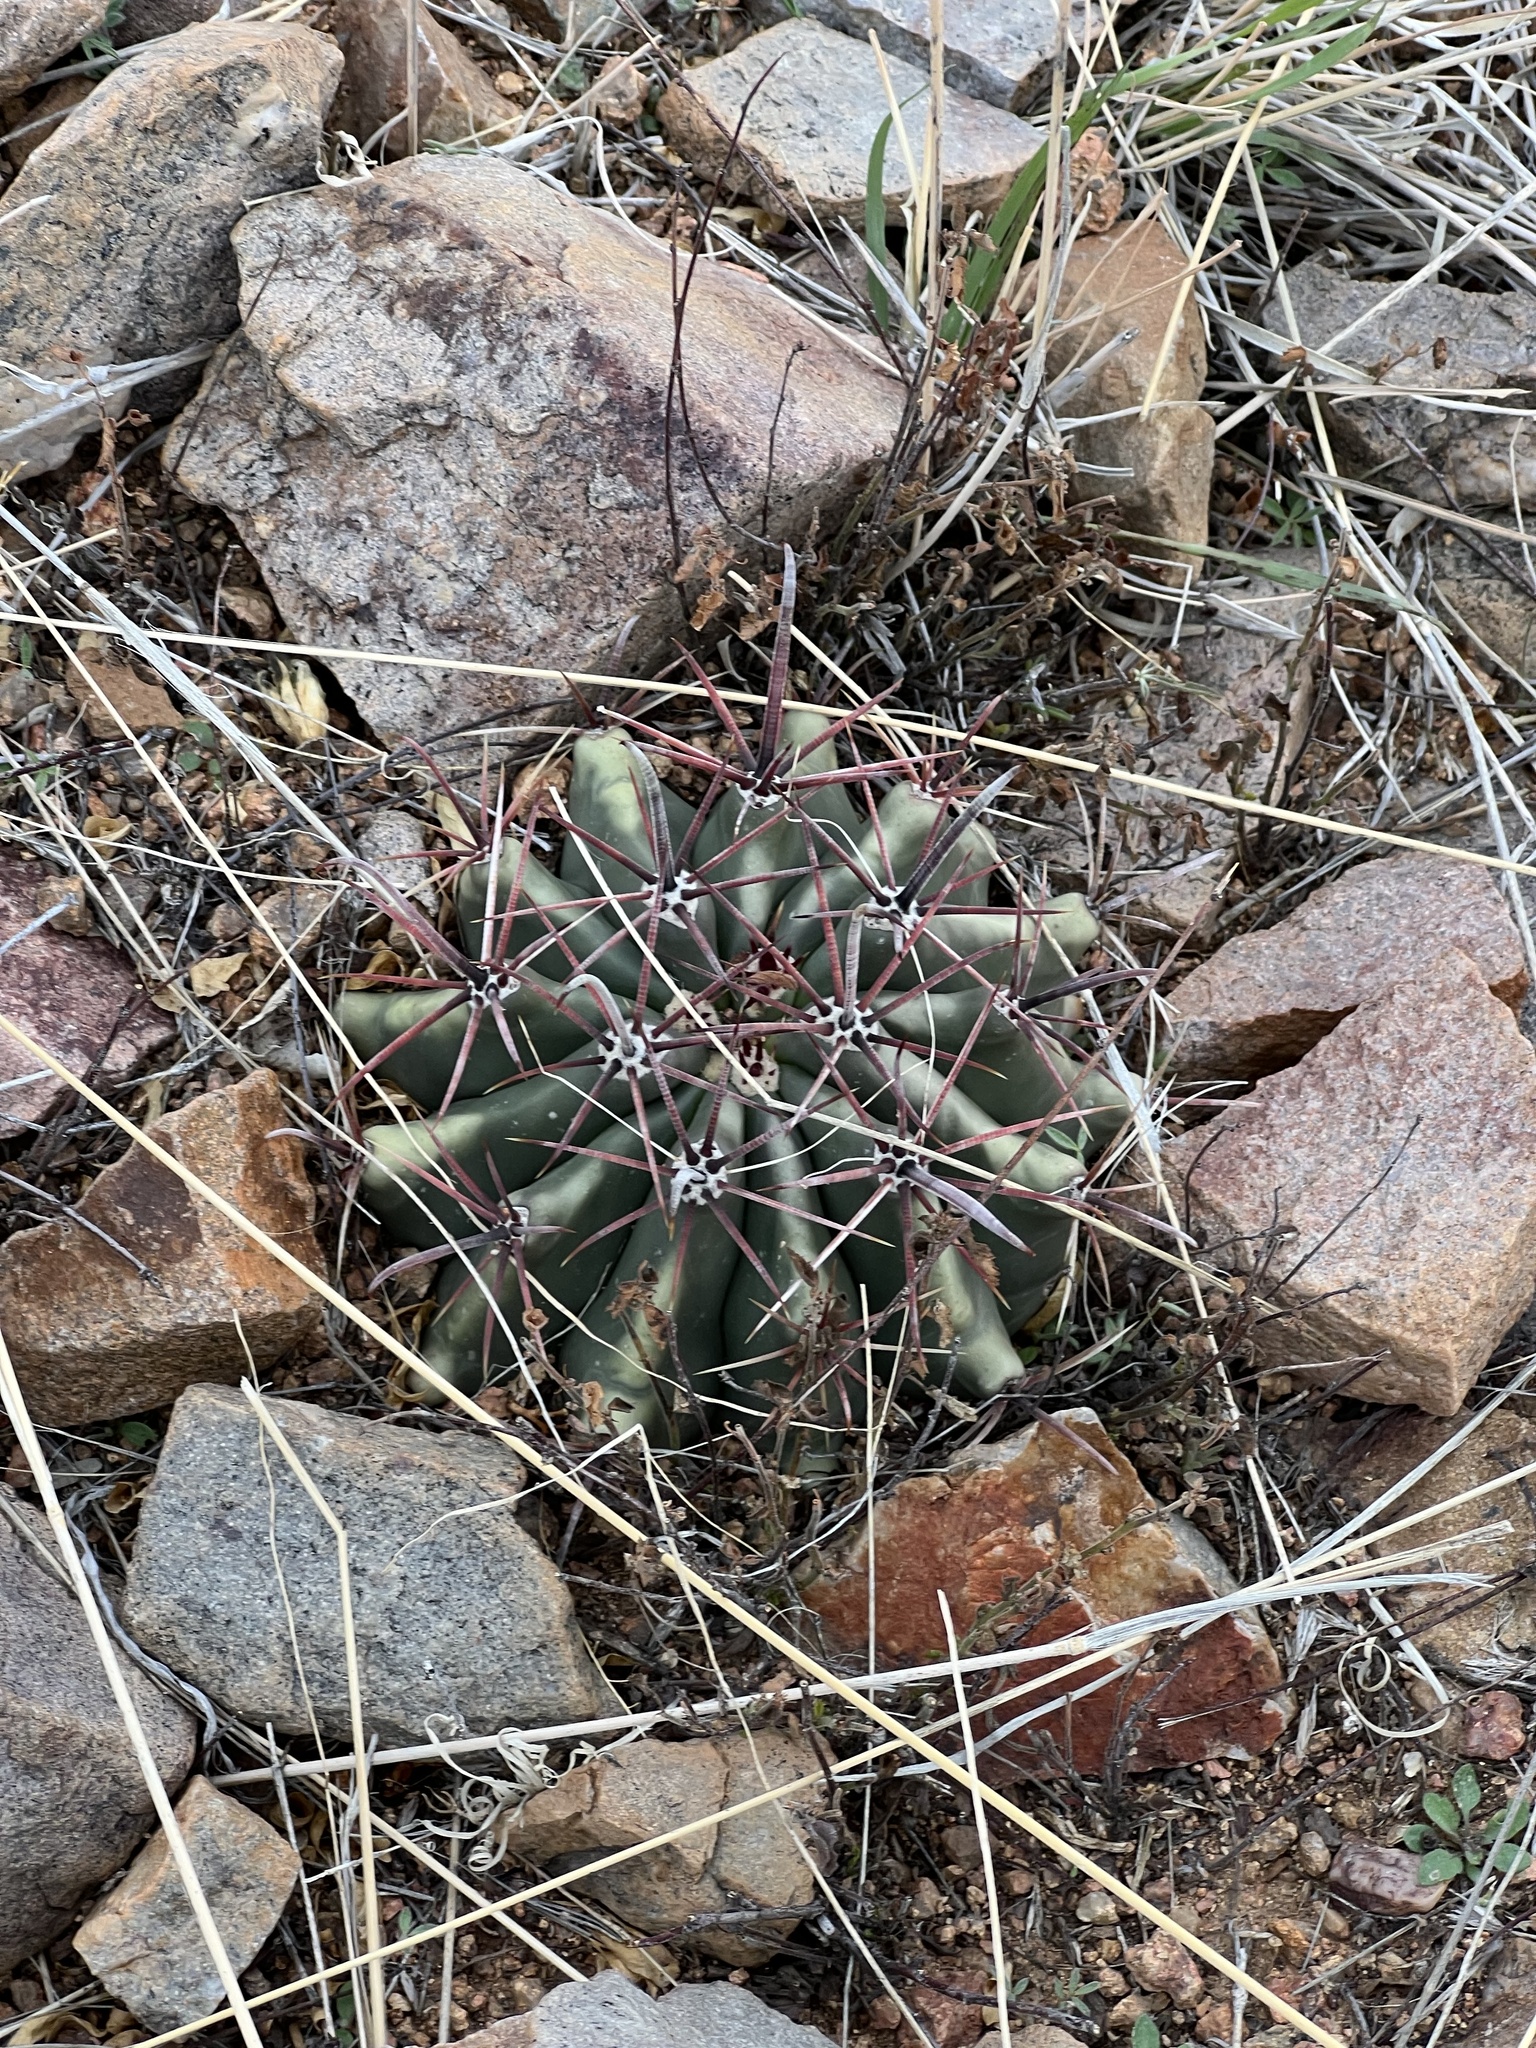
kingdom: Plantae
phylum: Tracheophyta
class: Magnoliopsida
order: Caryophyllales
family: Cactaceae
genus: Ferocactus
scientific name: Ferocactus wislizeni
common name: Candy barrel cactus
